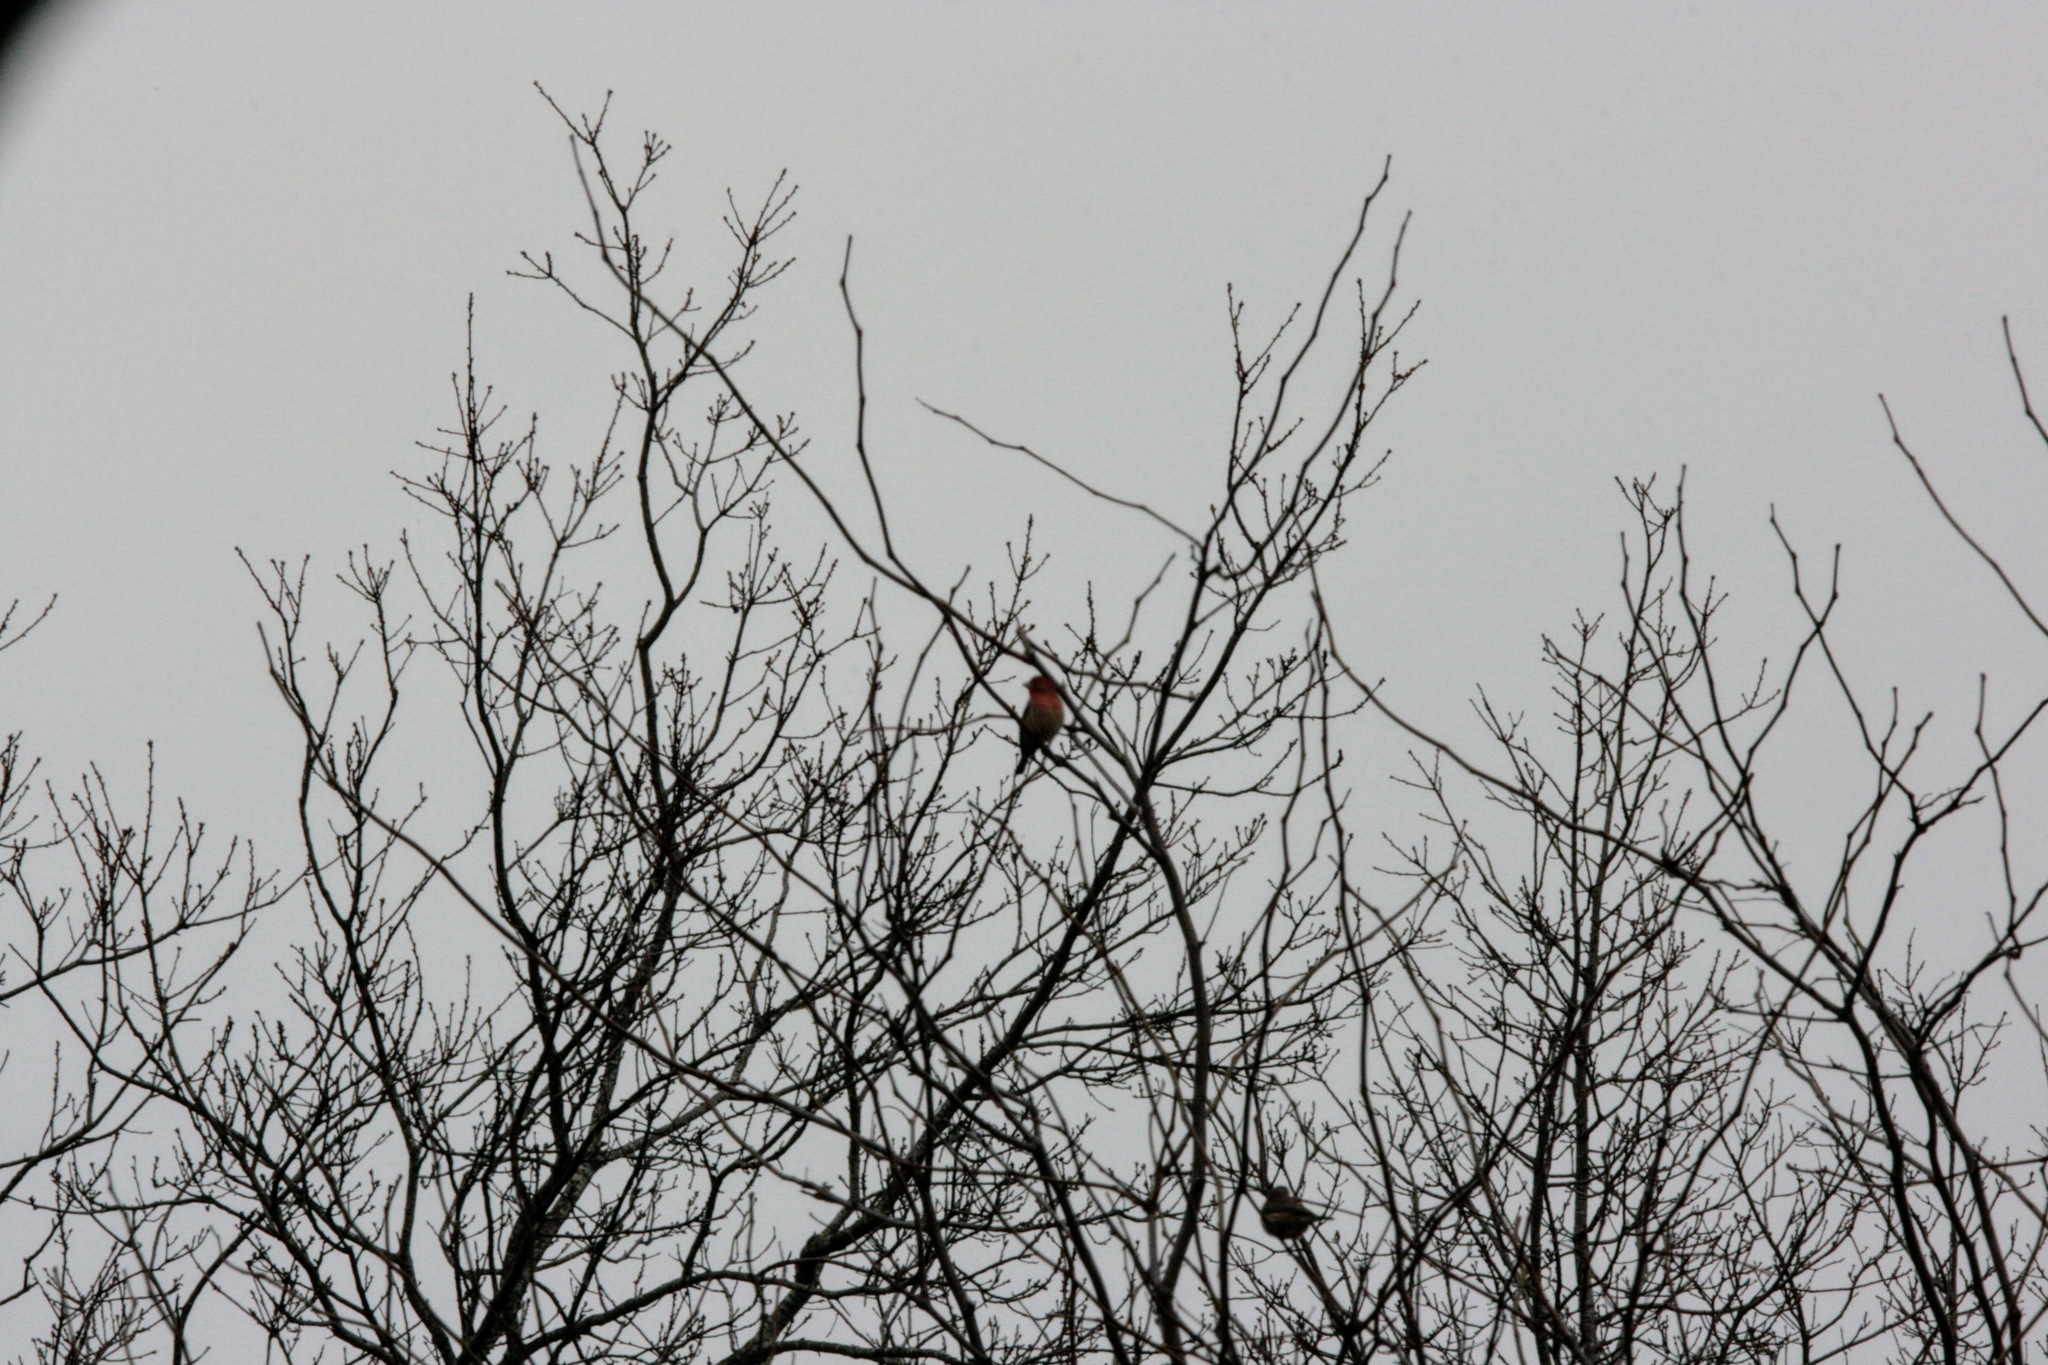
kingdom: Animalia
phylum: Chordata
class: Aves
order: Passeriformes
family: Fringillidae
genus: Haemorhous
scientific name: Haemorhous mexicanus
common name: House finch
